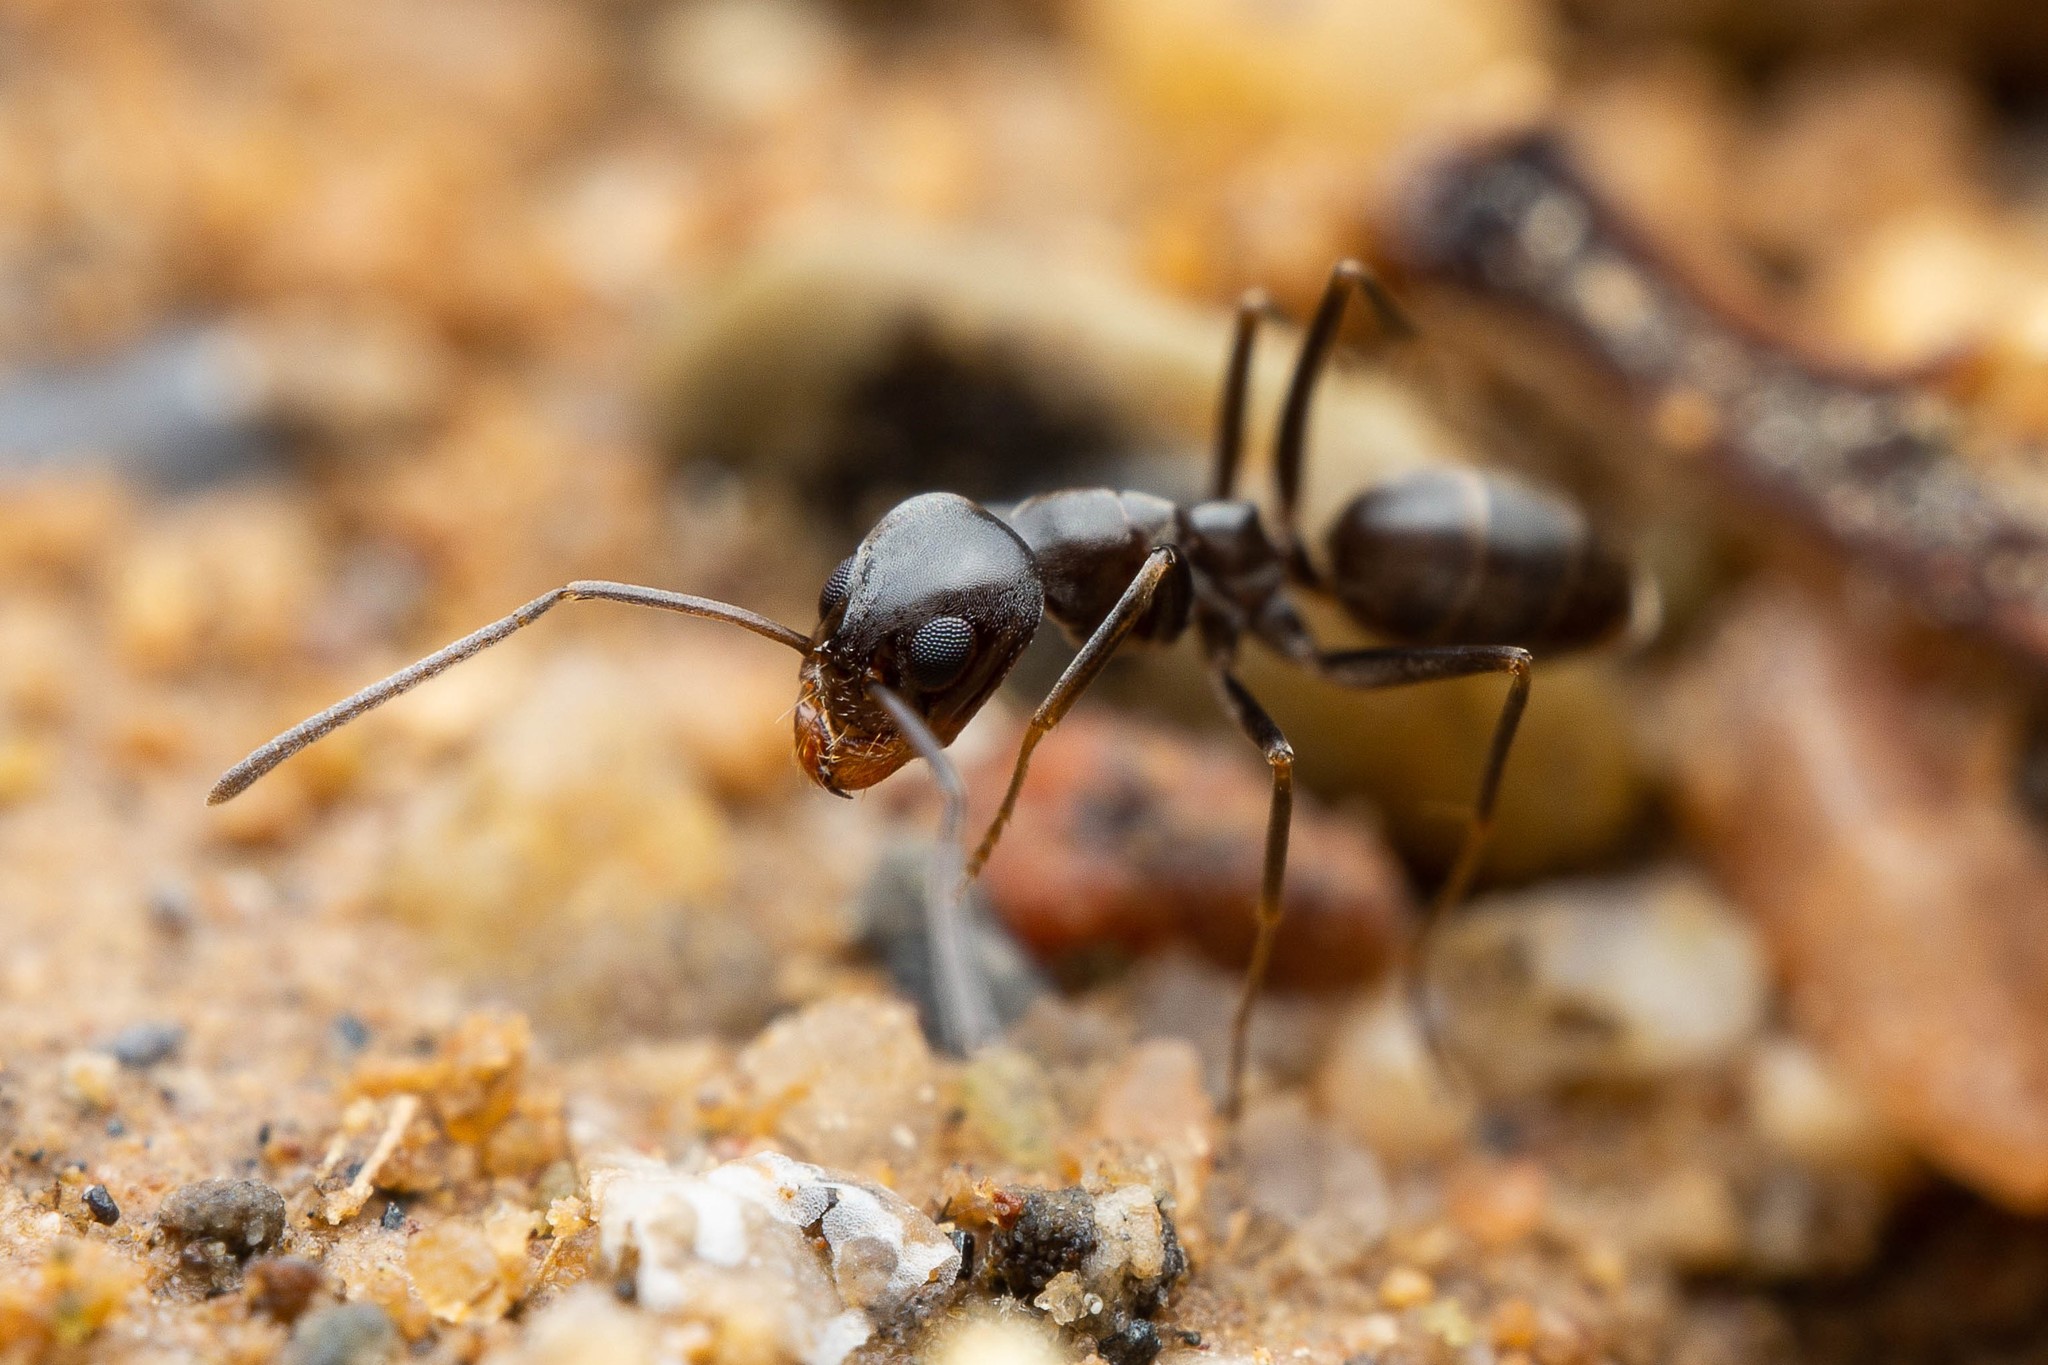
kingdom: Animalia
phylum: Arthropoda
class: Insecta
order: Hymenoptera
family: Formicidae
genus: Dorymyrmex
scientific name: Dorymyrmex insanus
